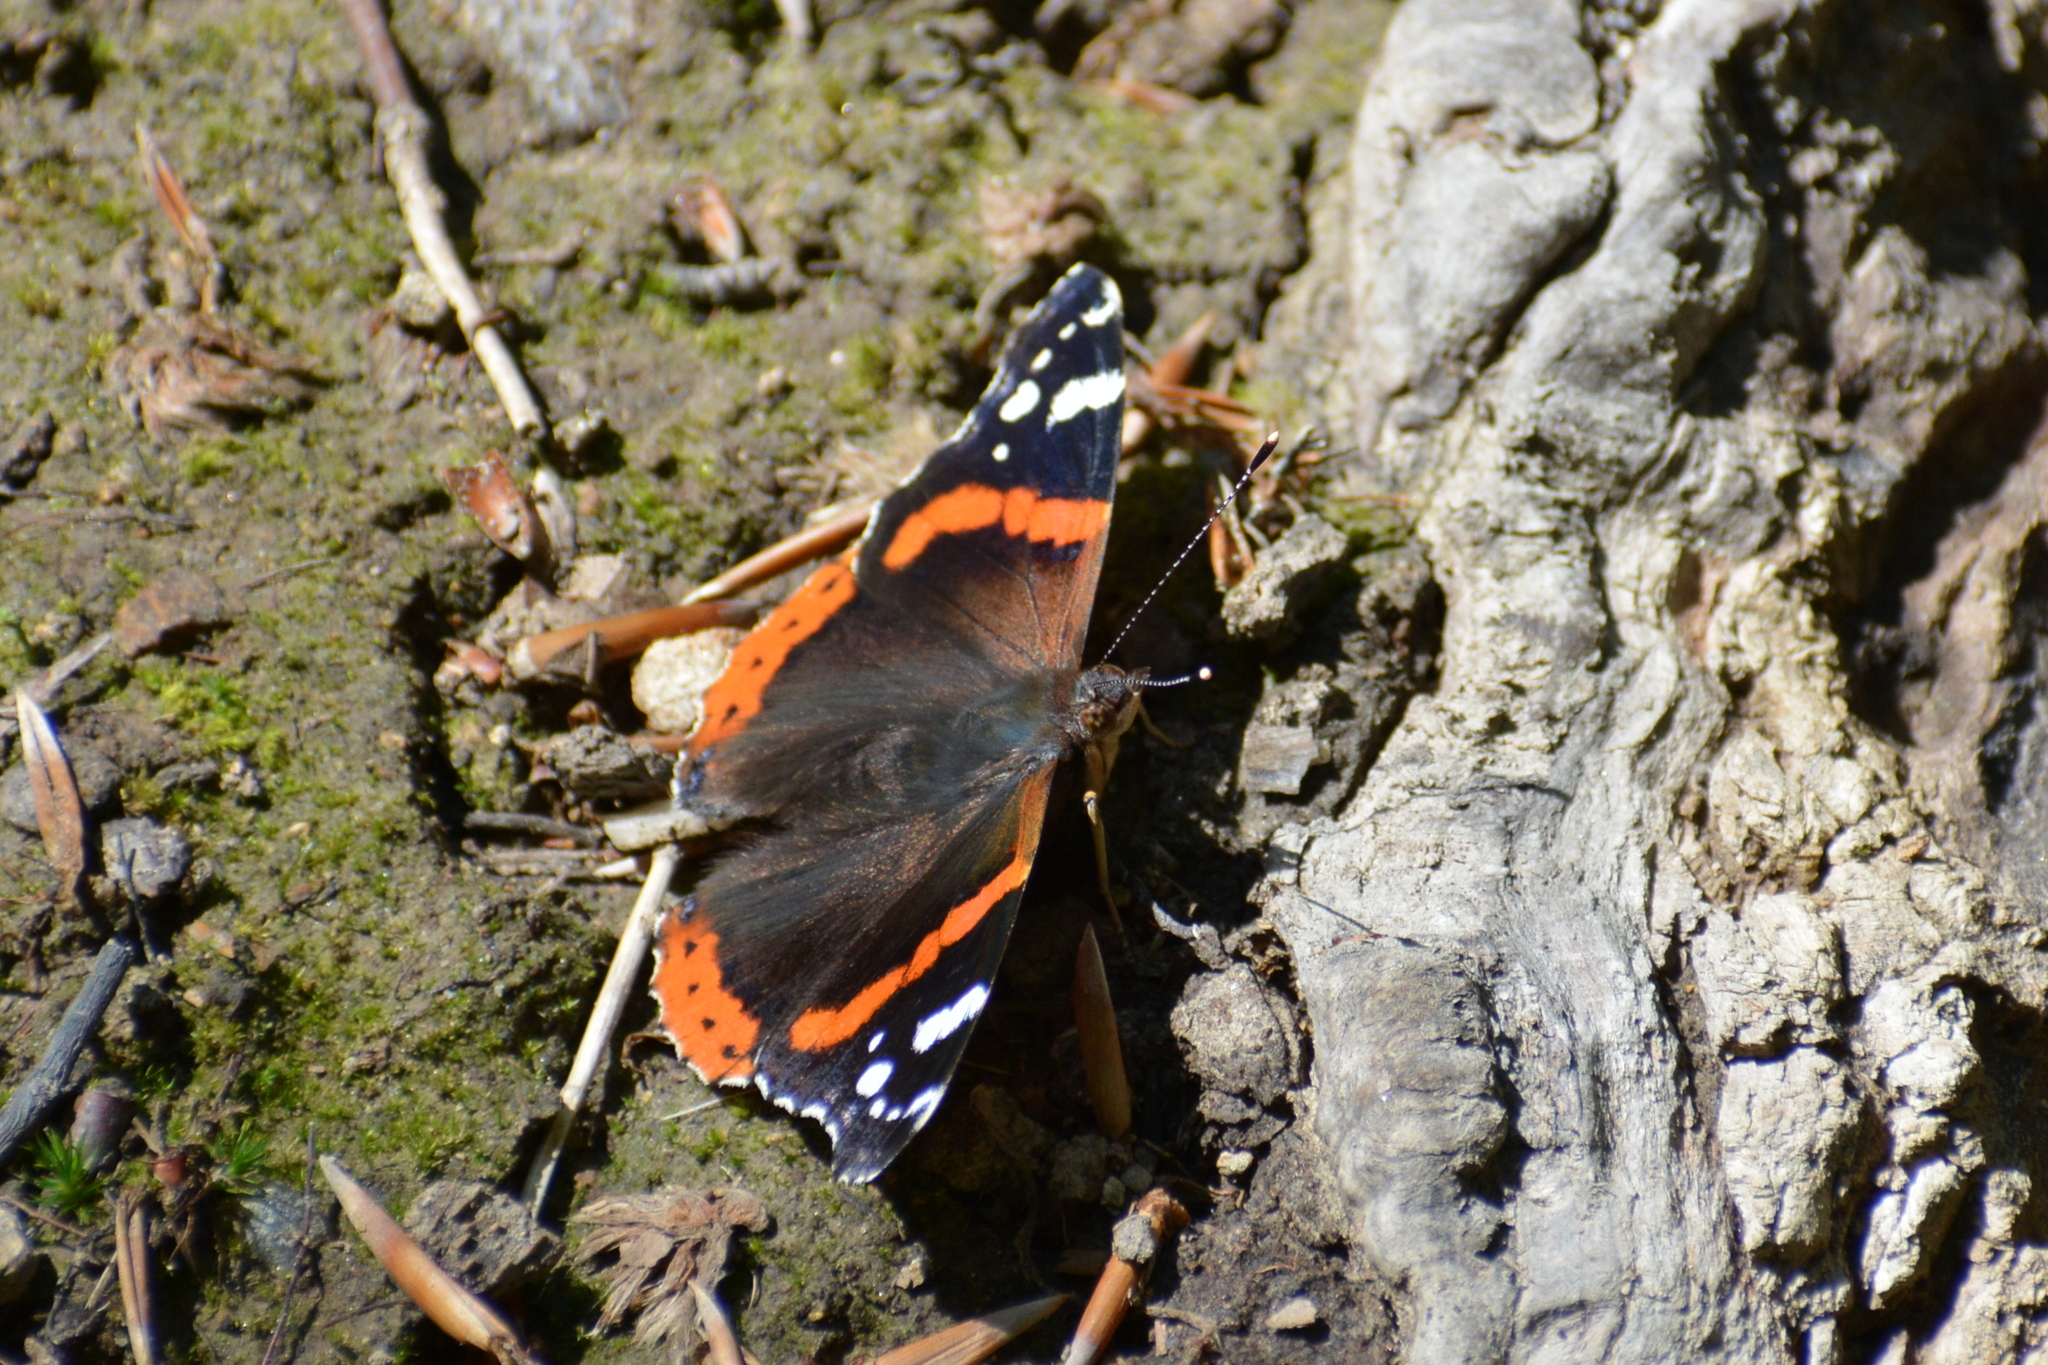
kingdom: Animalia
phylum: Arthropoda
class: Insecta
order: Lepidoptera
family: Nymphalidae
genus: Vanessa
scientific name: Vanessa atalanta
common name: Red admiral
